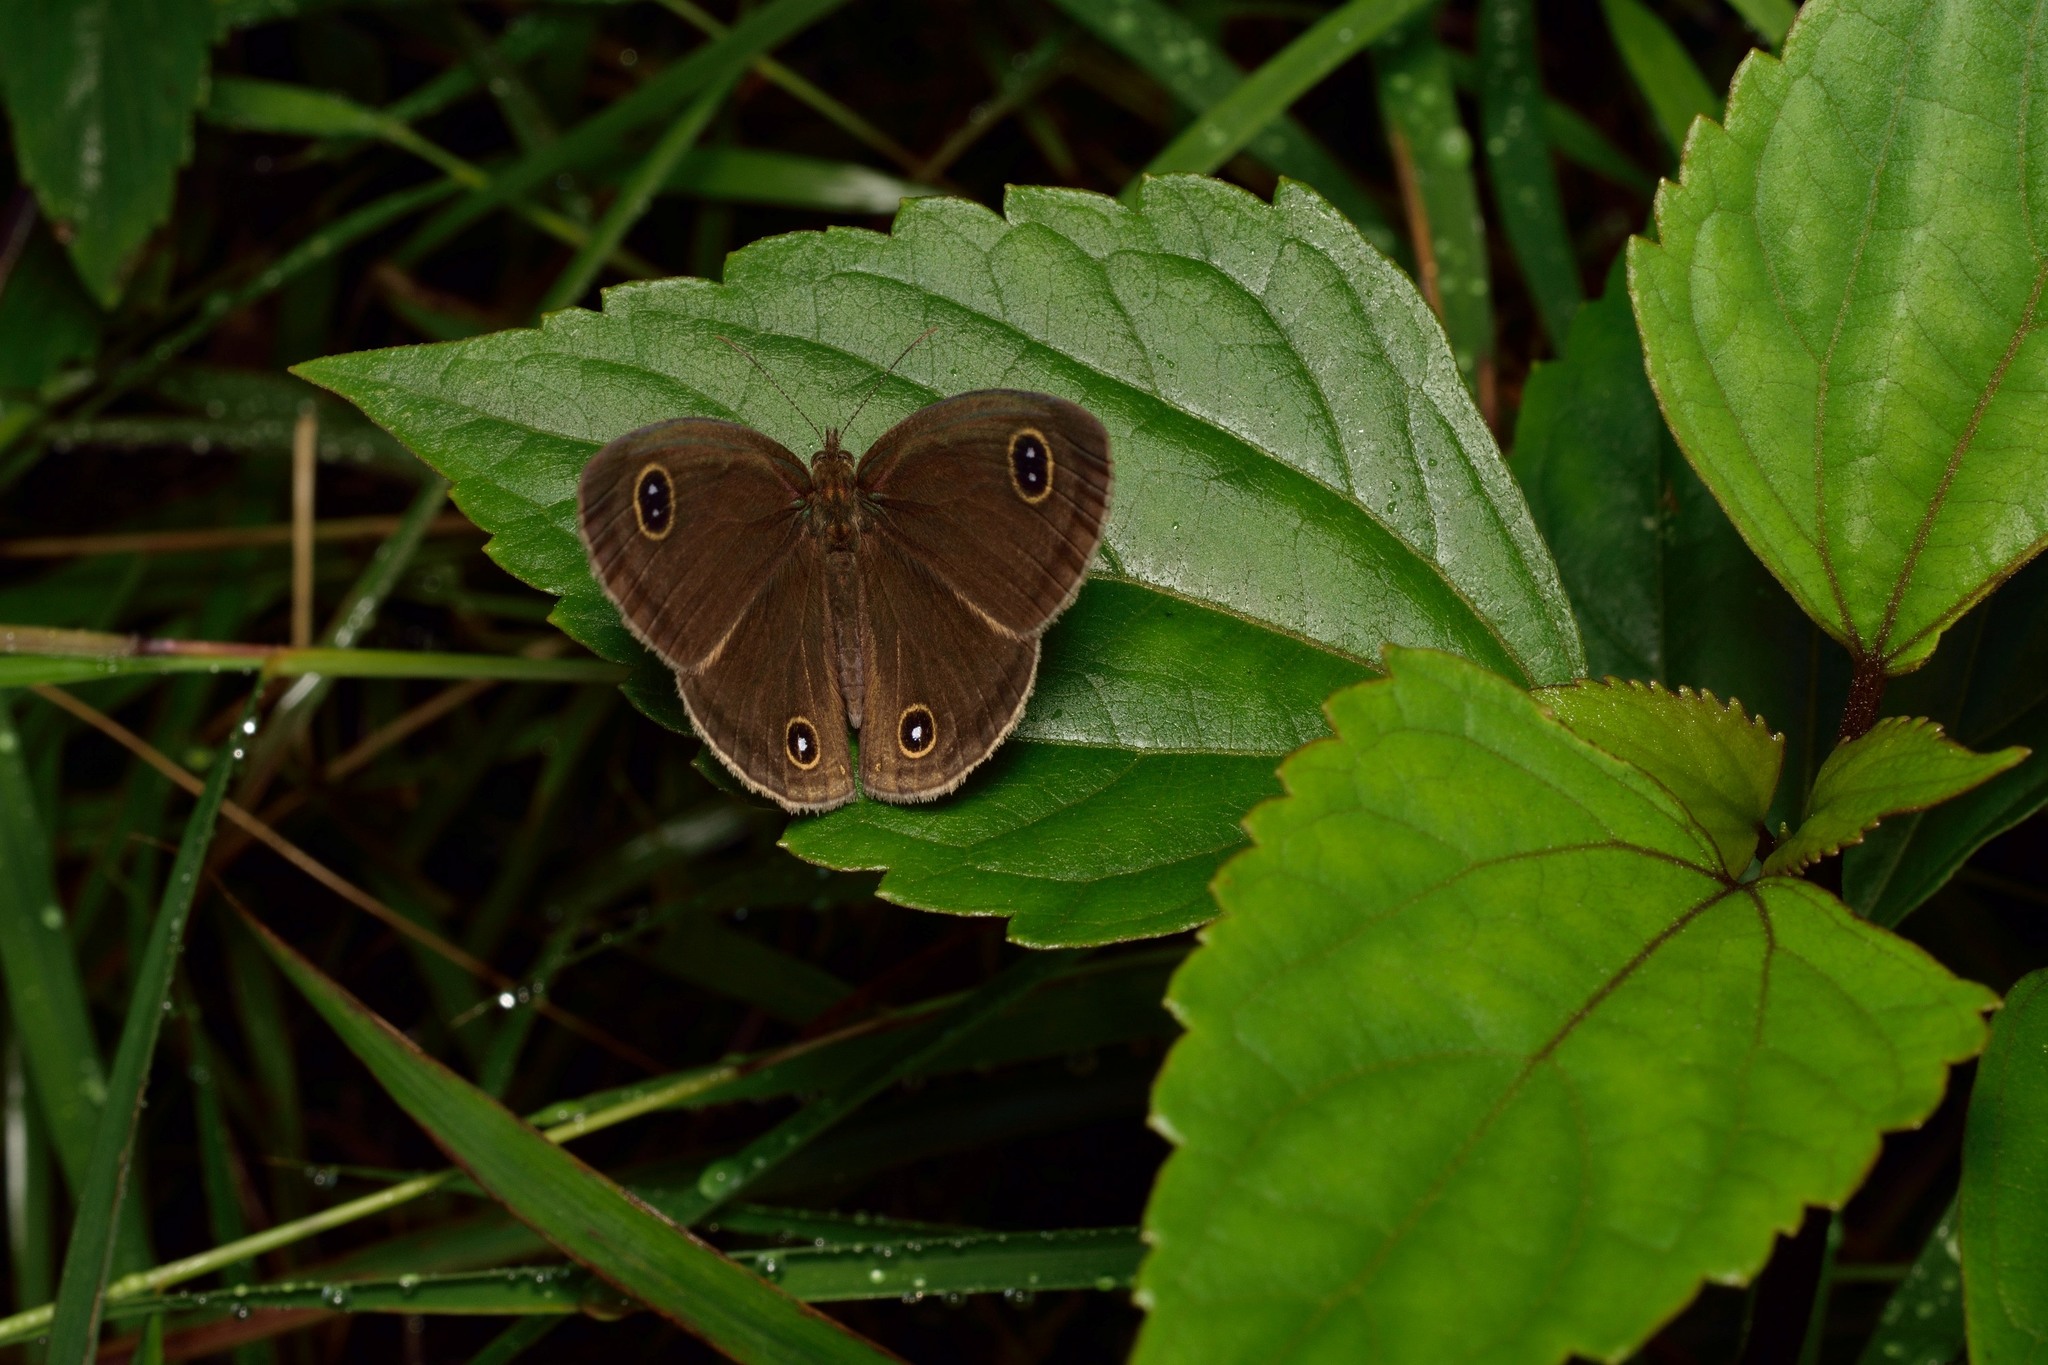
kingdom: Animalia
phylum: Arthropoda
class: Insecta
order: Lepidoptera
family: Nymphalidae
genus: Ypthima
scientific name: Ypthima newara
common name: Newar three ring
